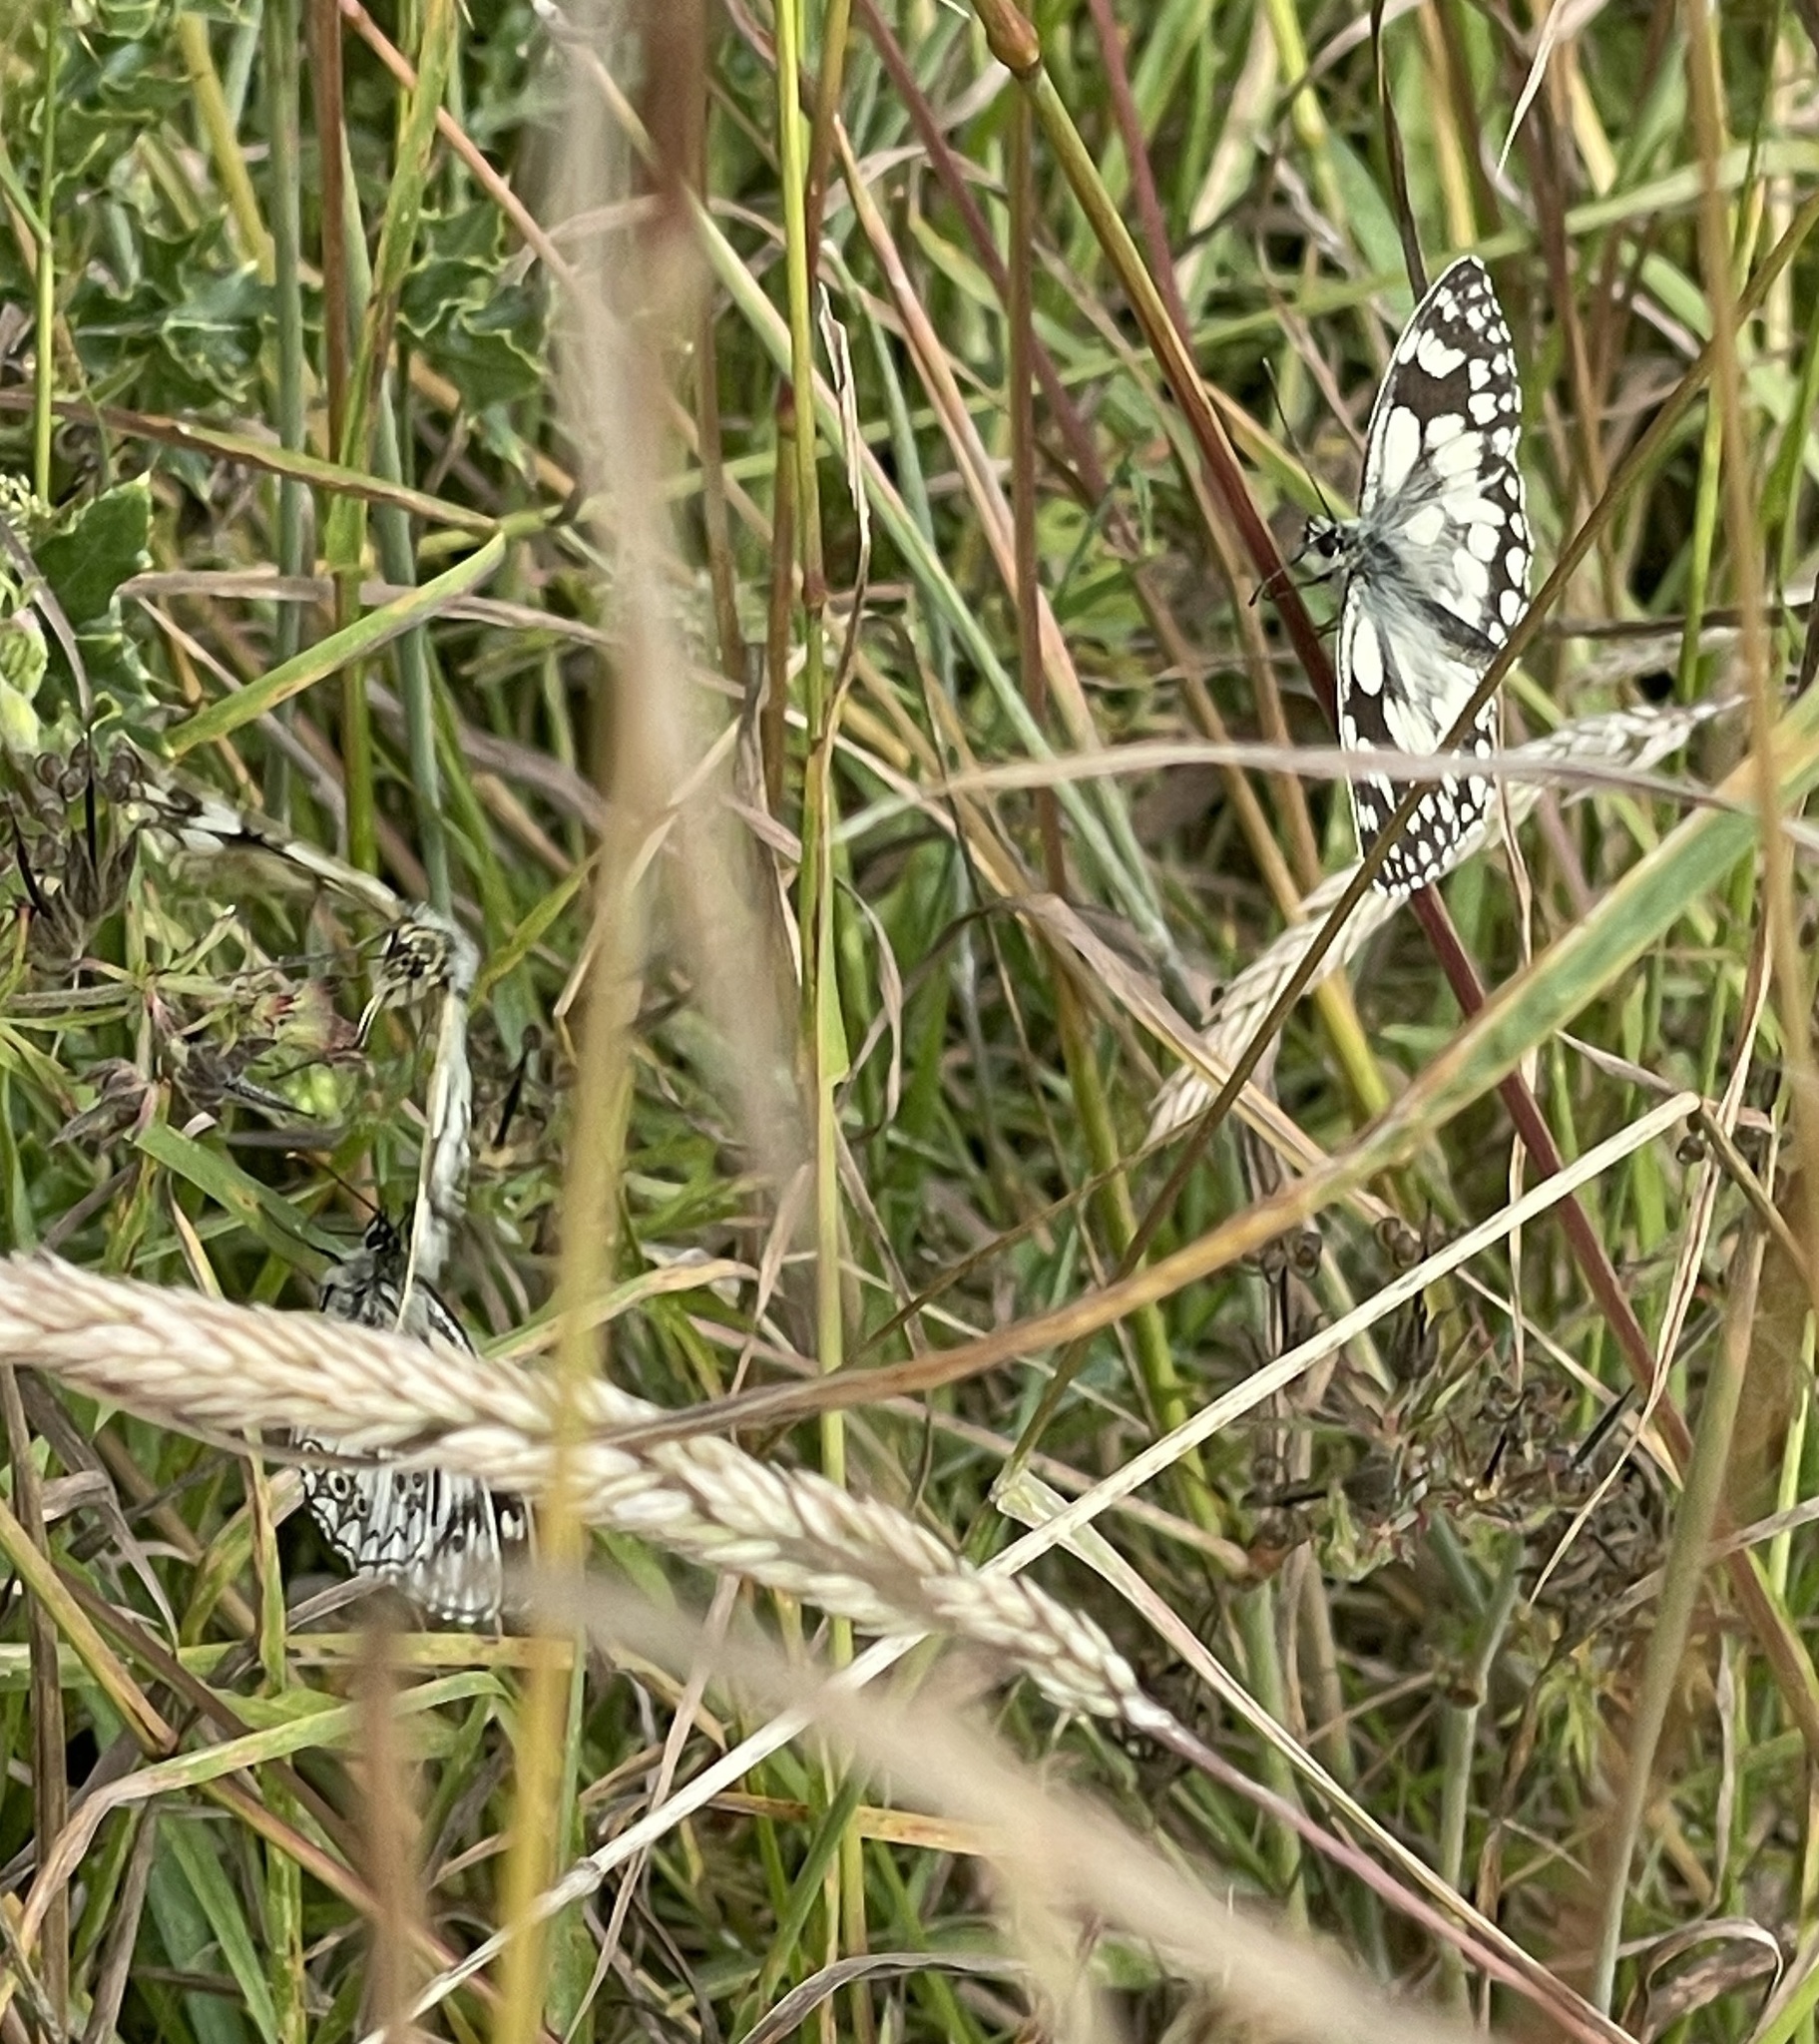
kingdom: Animalia
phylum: Arthropoda
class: Insecta
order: Lepidoptera
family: Nymphalidae
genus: Melanargia
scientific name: Melanargia galathea
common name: Marbled white
